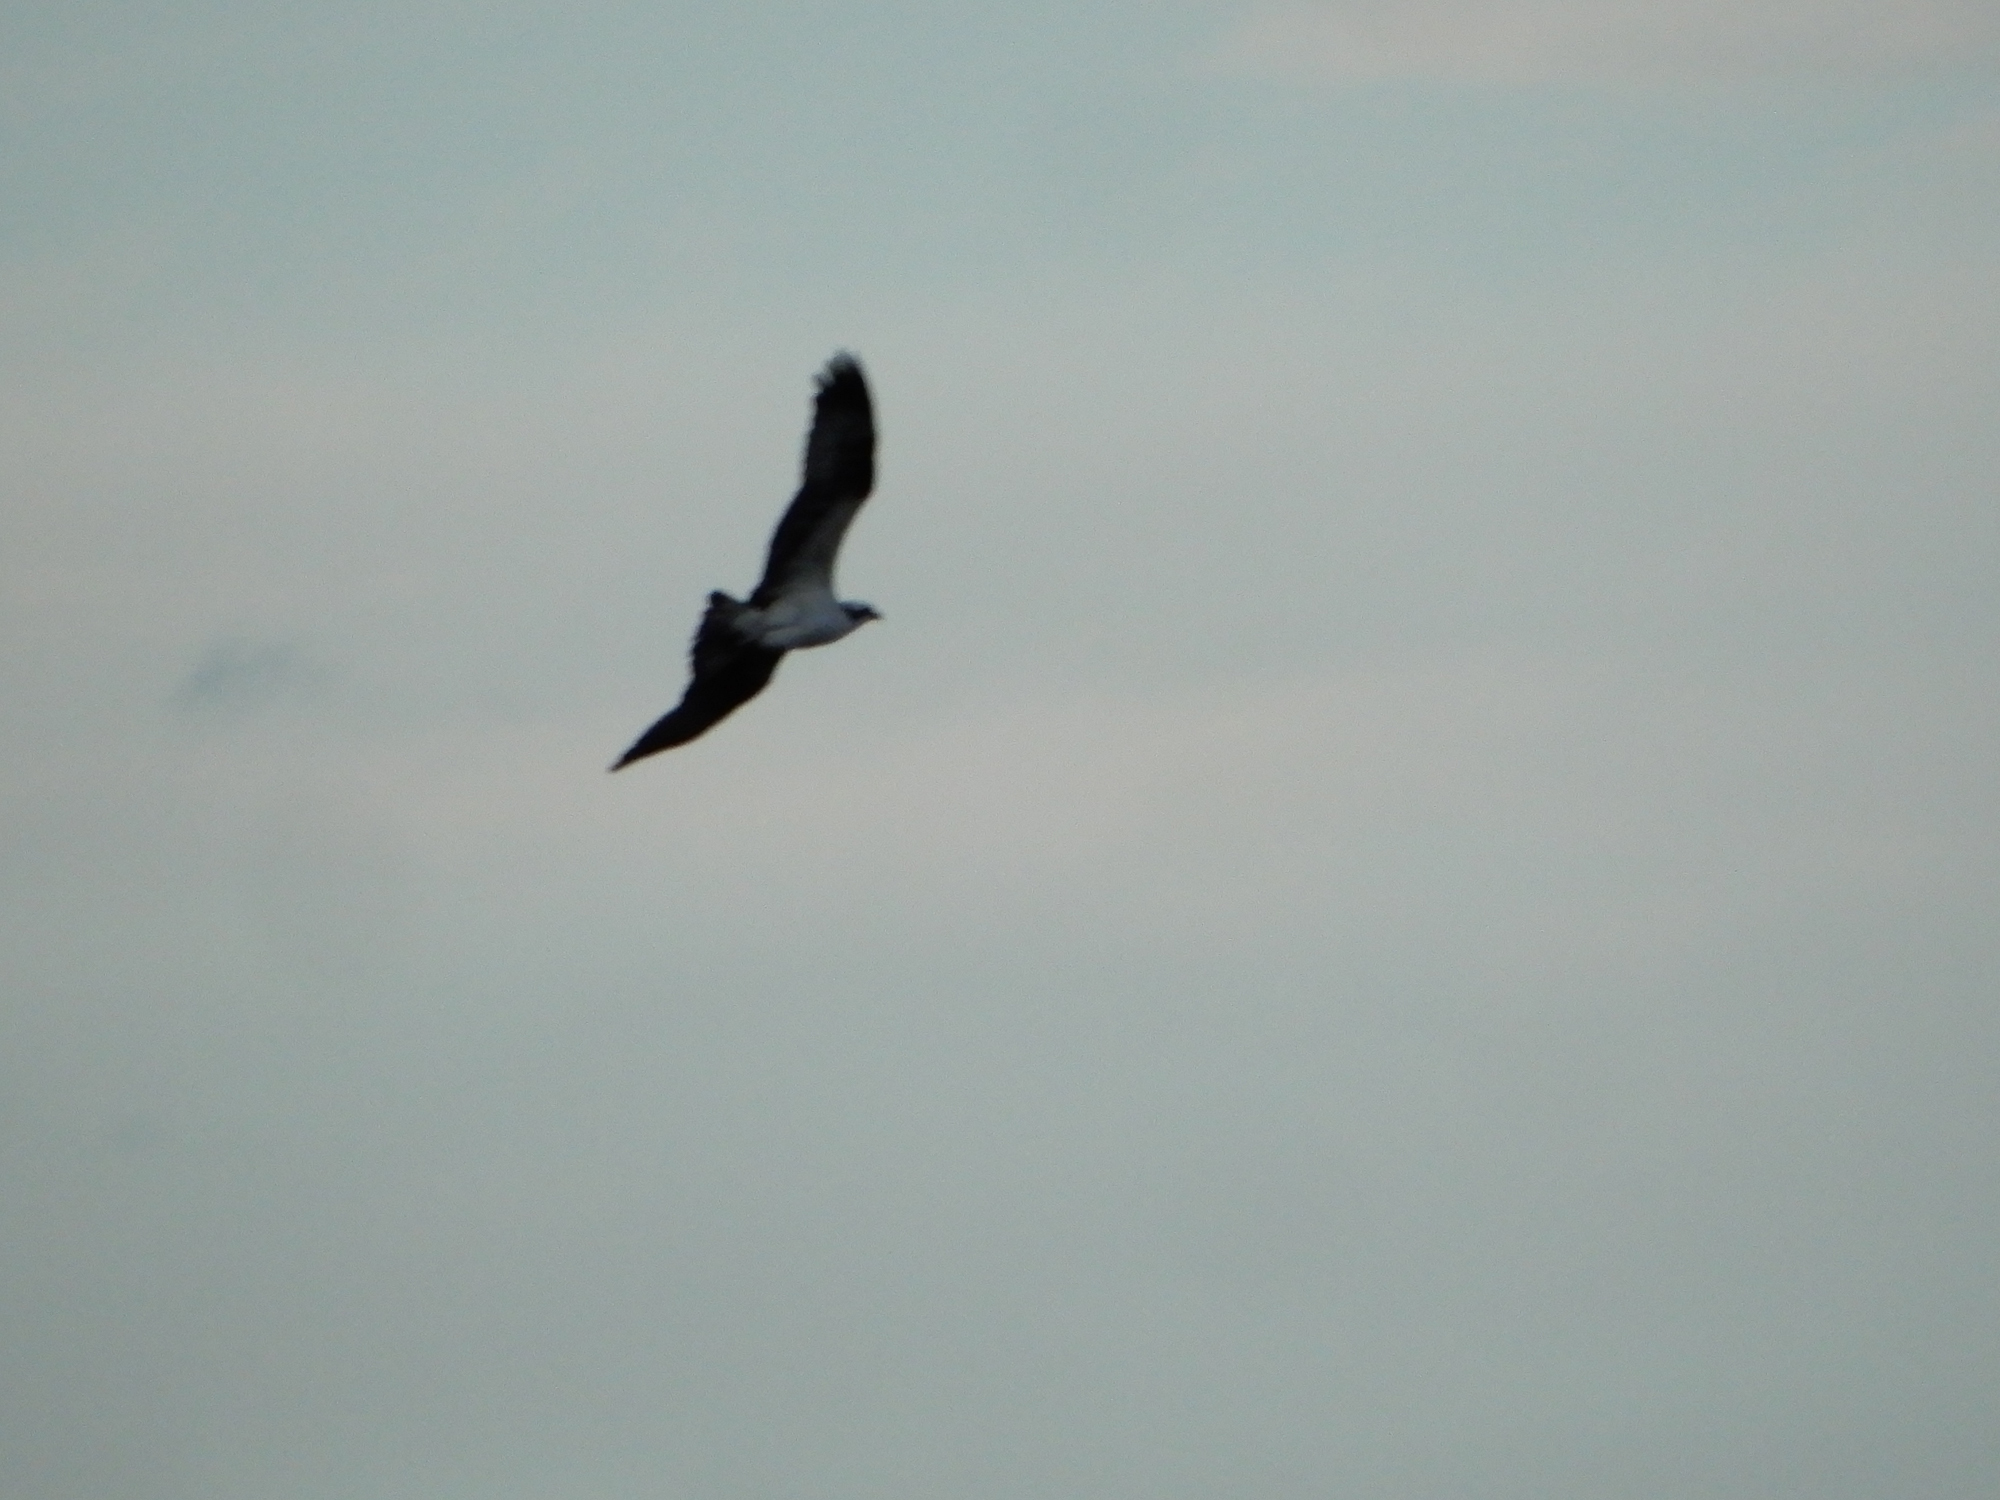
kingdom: Animalia
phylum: Chordata
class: Aves
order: Accipitriformes
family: Pandionidae
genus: Pandion
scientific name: Pandion haliaetus
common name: Osprey
